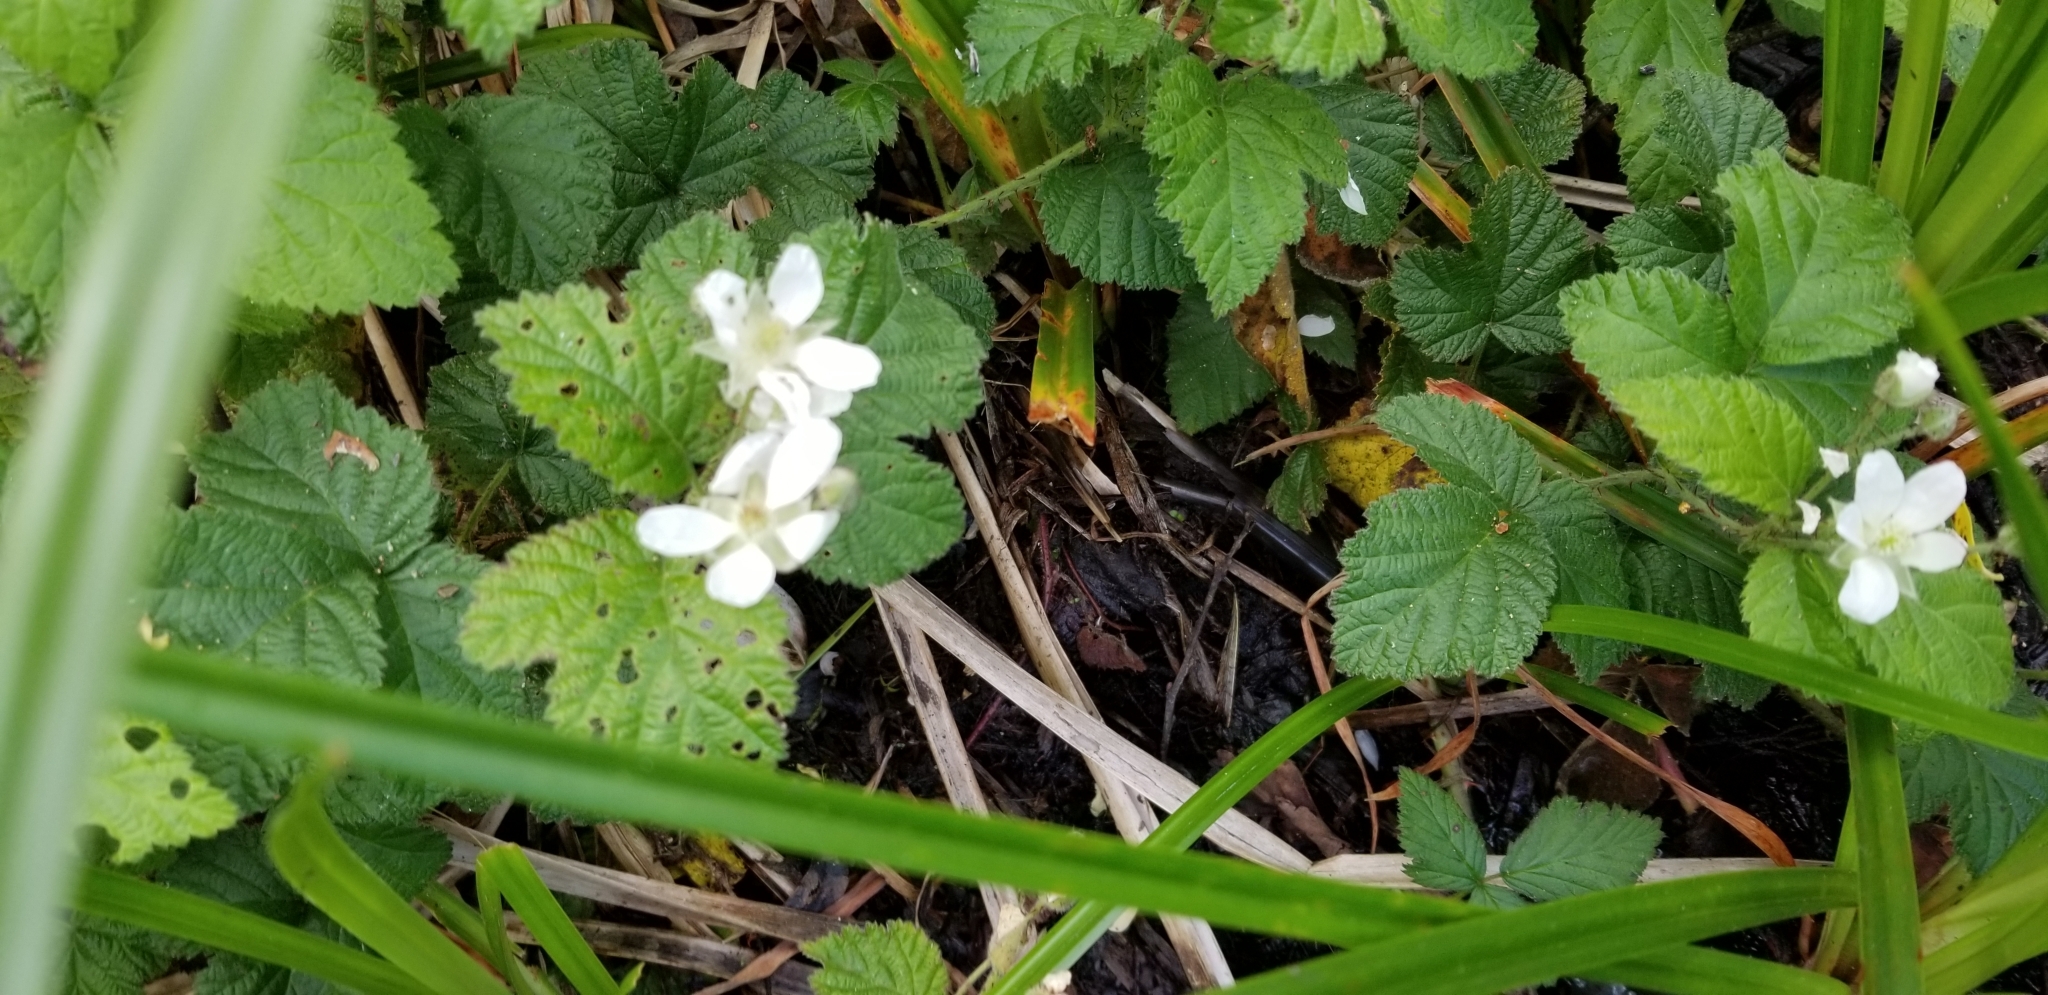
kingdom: Plantae
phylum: Tracheophyta
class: Magnoliopsida
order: Rosales
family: Rosaceae
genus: Rubus
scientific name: Rubus ursinus
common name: Pacific blackberry
